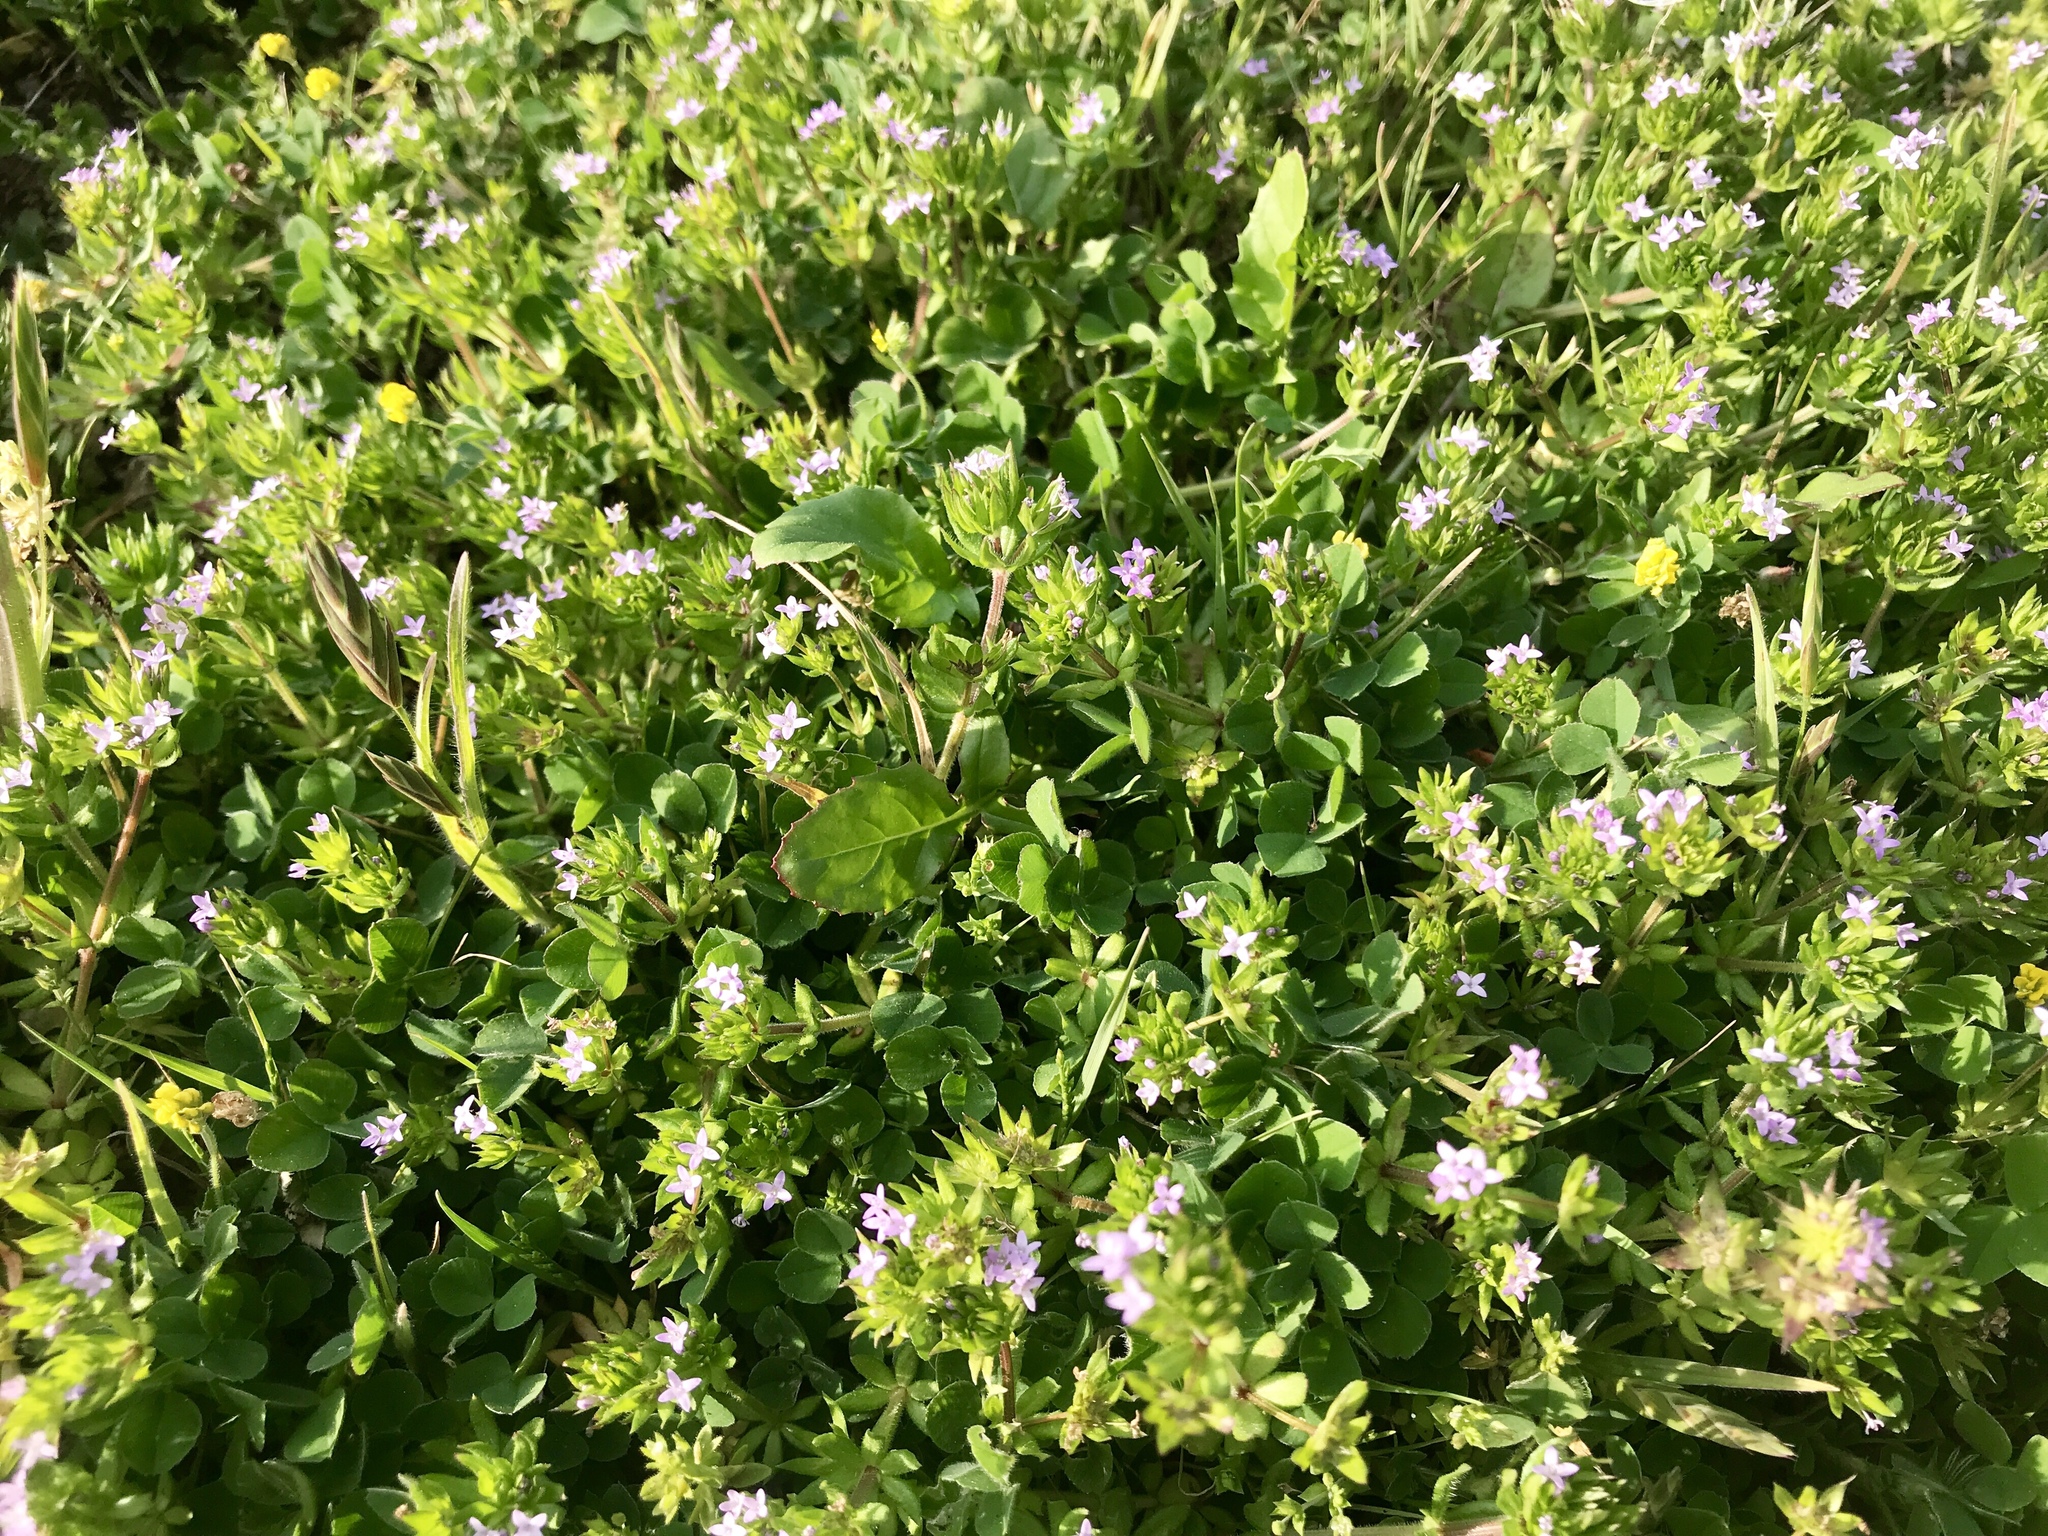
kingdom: Plantae
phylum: Tracheophyta
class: Magnoliopsida
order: Gentianales
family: Rubiaceae
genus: Sherardia
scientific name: Sherardia arvensis
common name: Field madder
